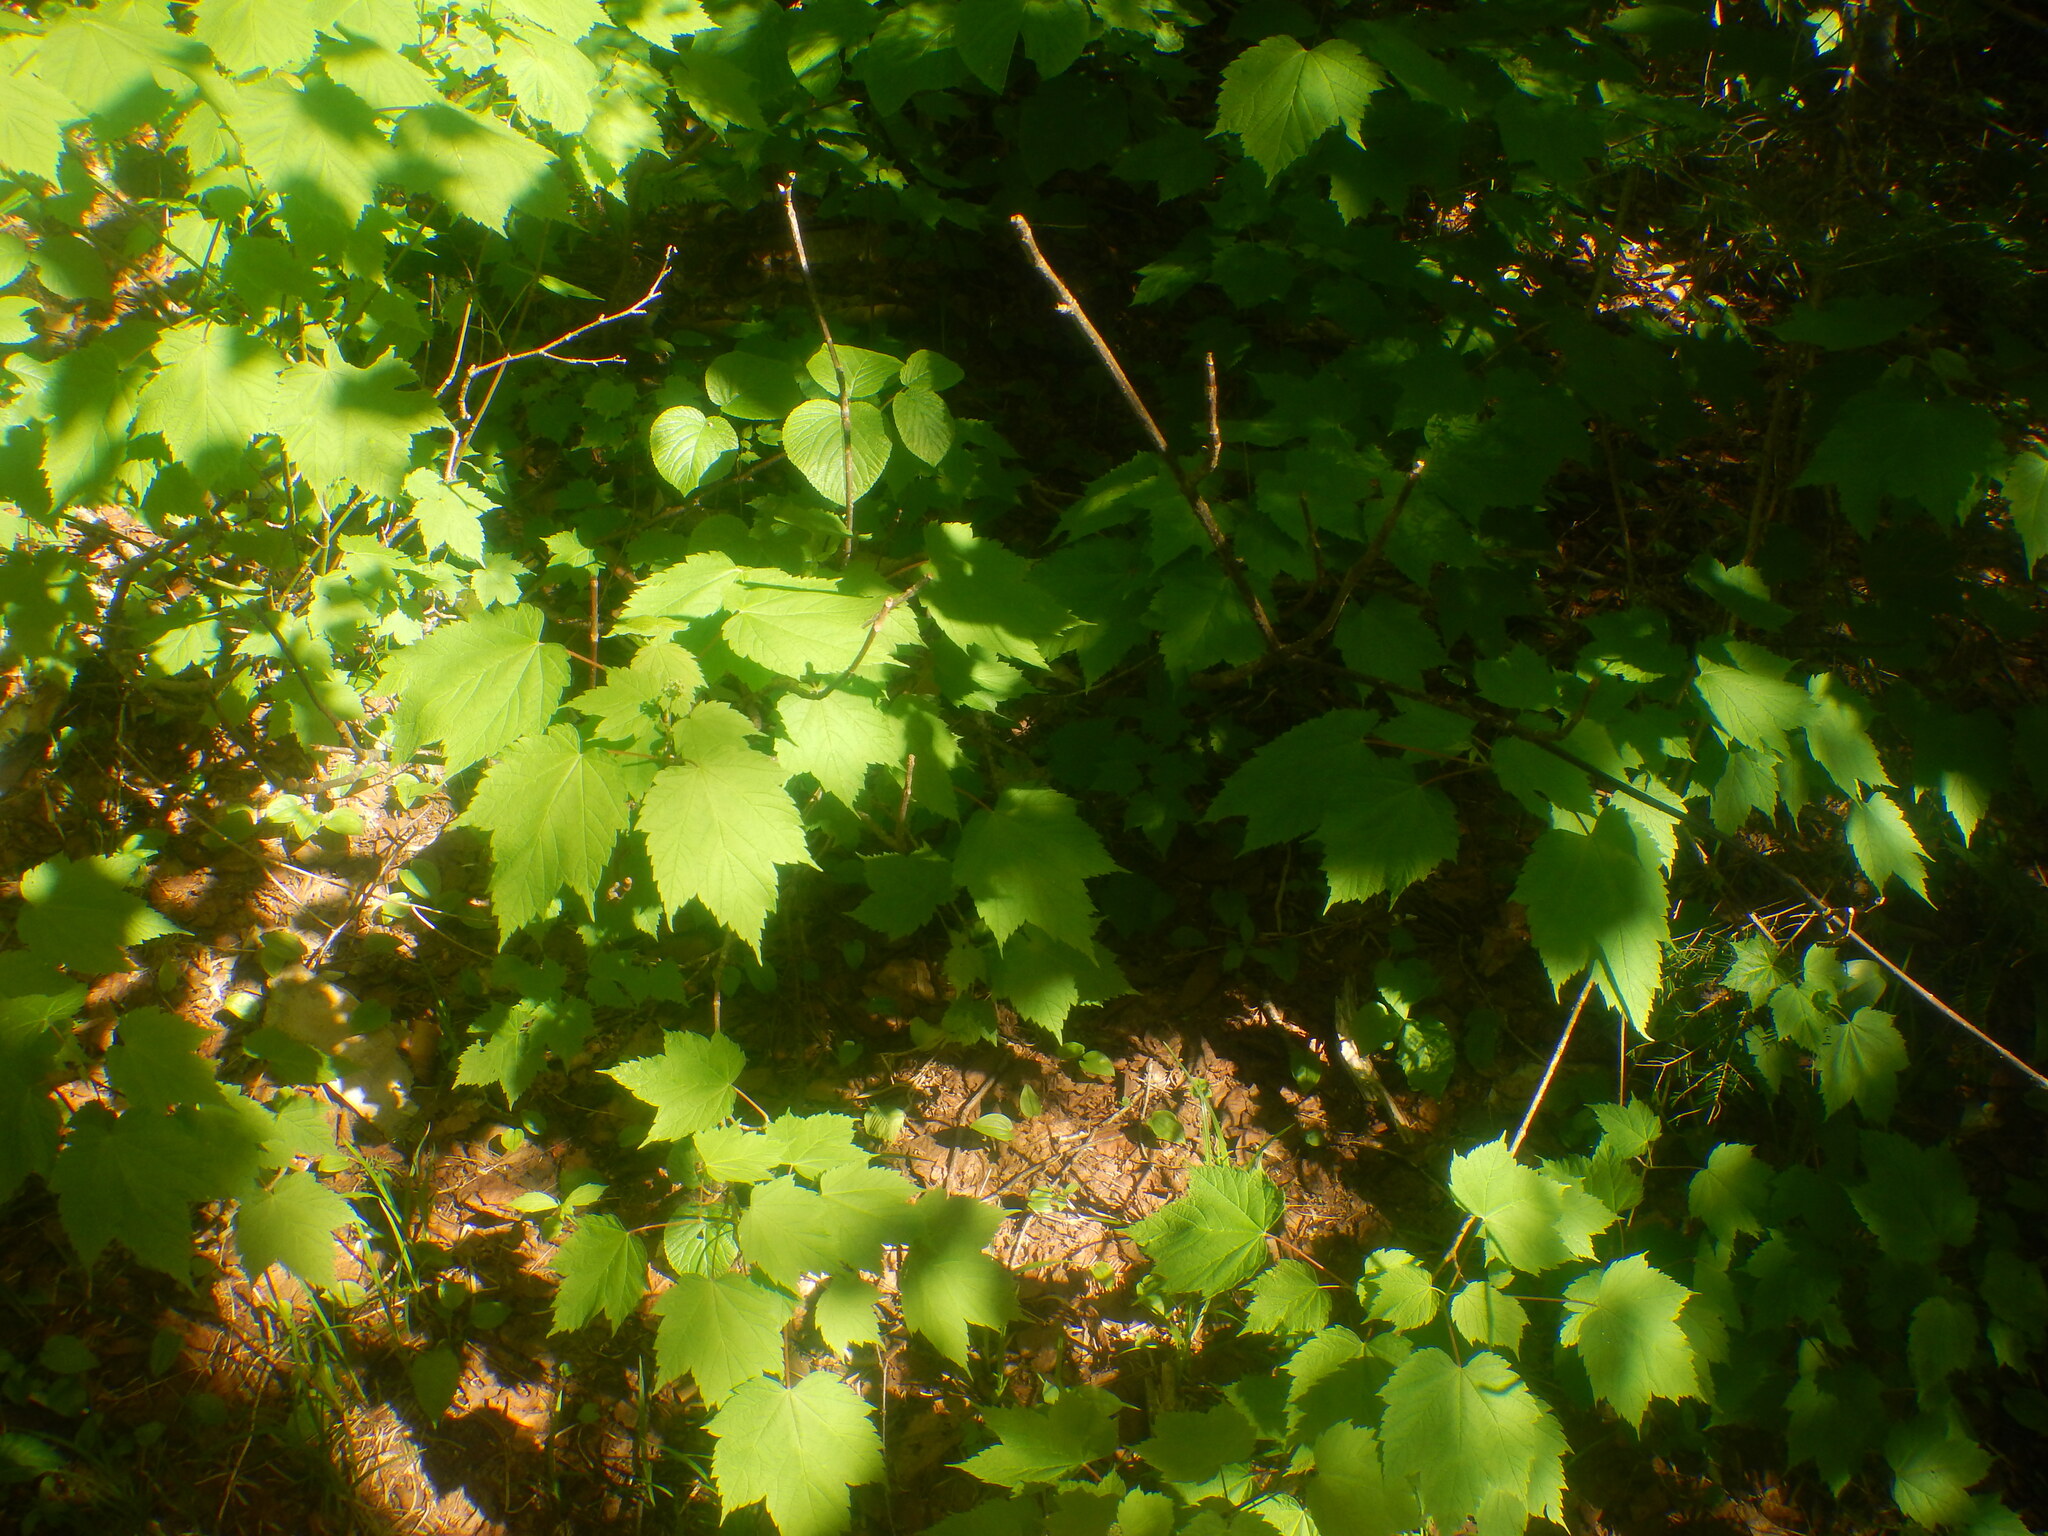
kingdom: Plantae
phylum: Tracheophyta
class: Magnoliopsida
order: Sapindales
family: Sapindaceae
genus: Acer
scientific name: Acer spicatum
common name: Mountain maple
